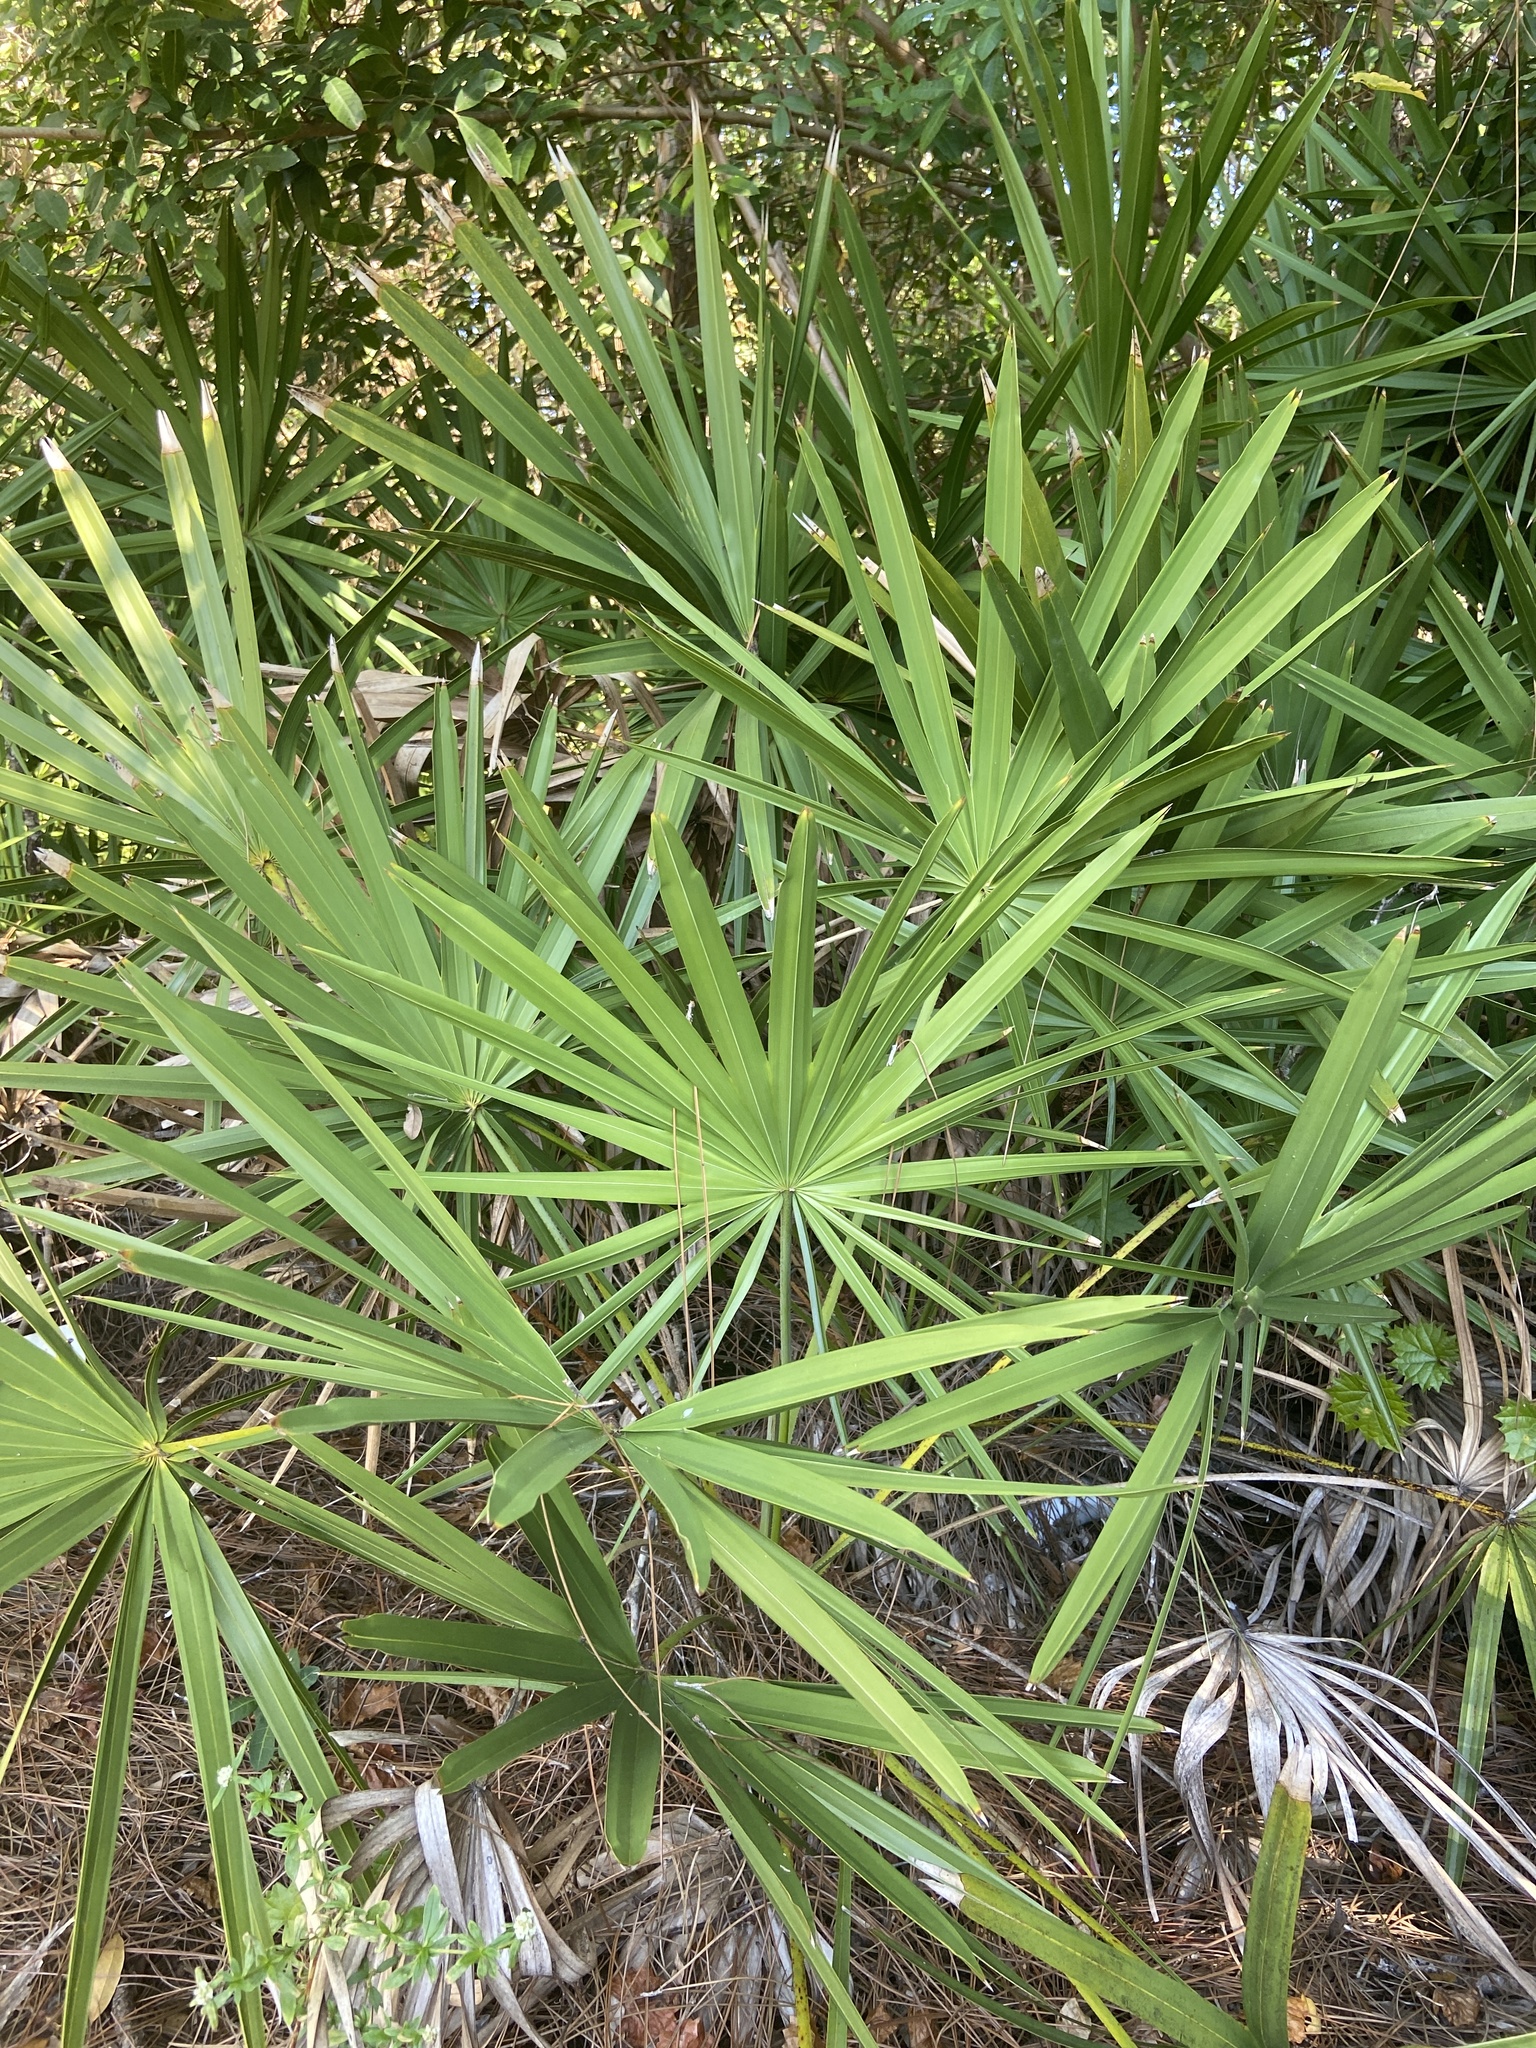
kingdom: Plantae
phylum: Tracheophyta
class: Liliopsida
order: Arecales
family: Arecaceae
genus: Serenoa
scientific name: Serenoa repens
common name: Saw-palmetto
